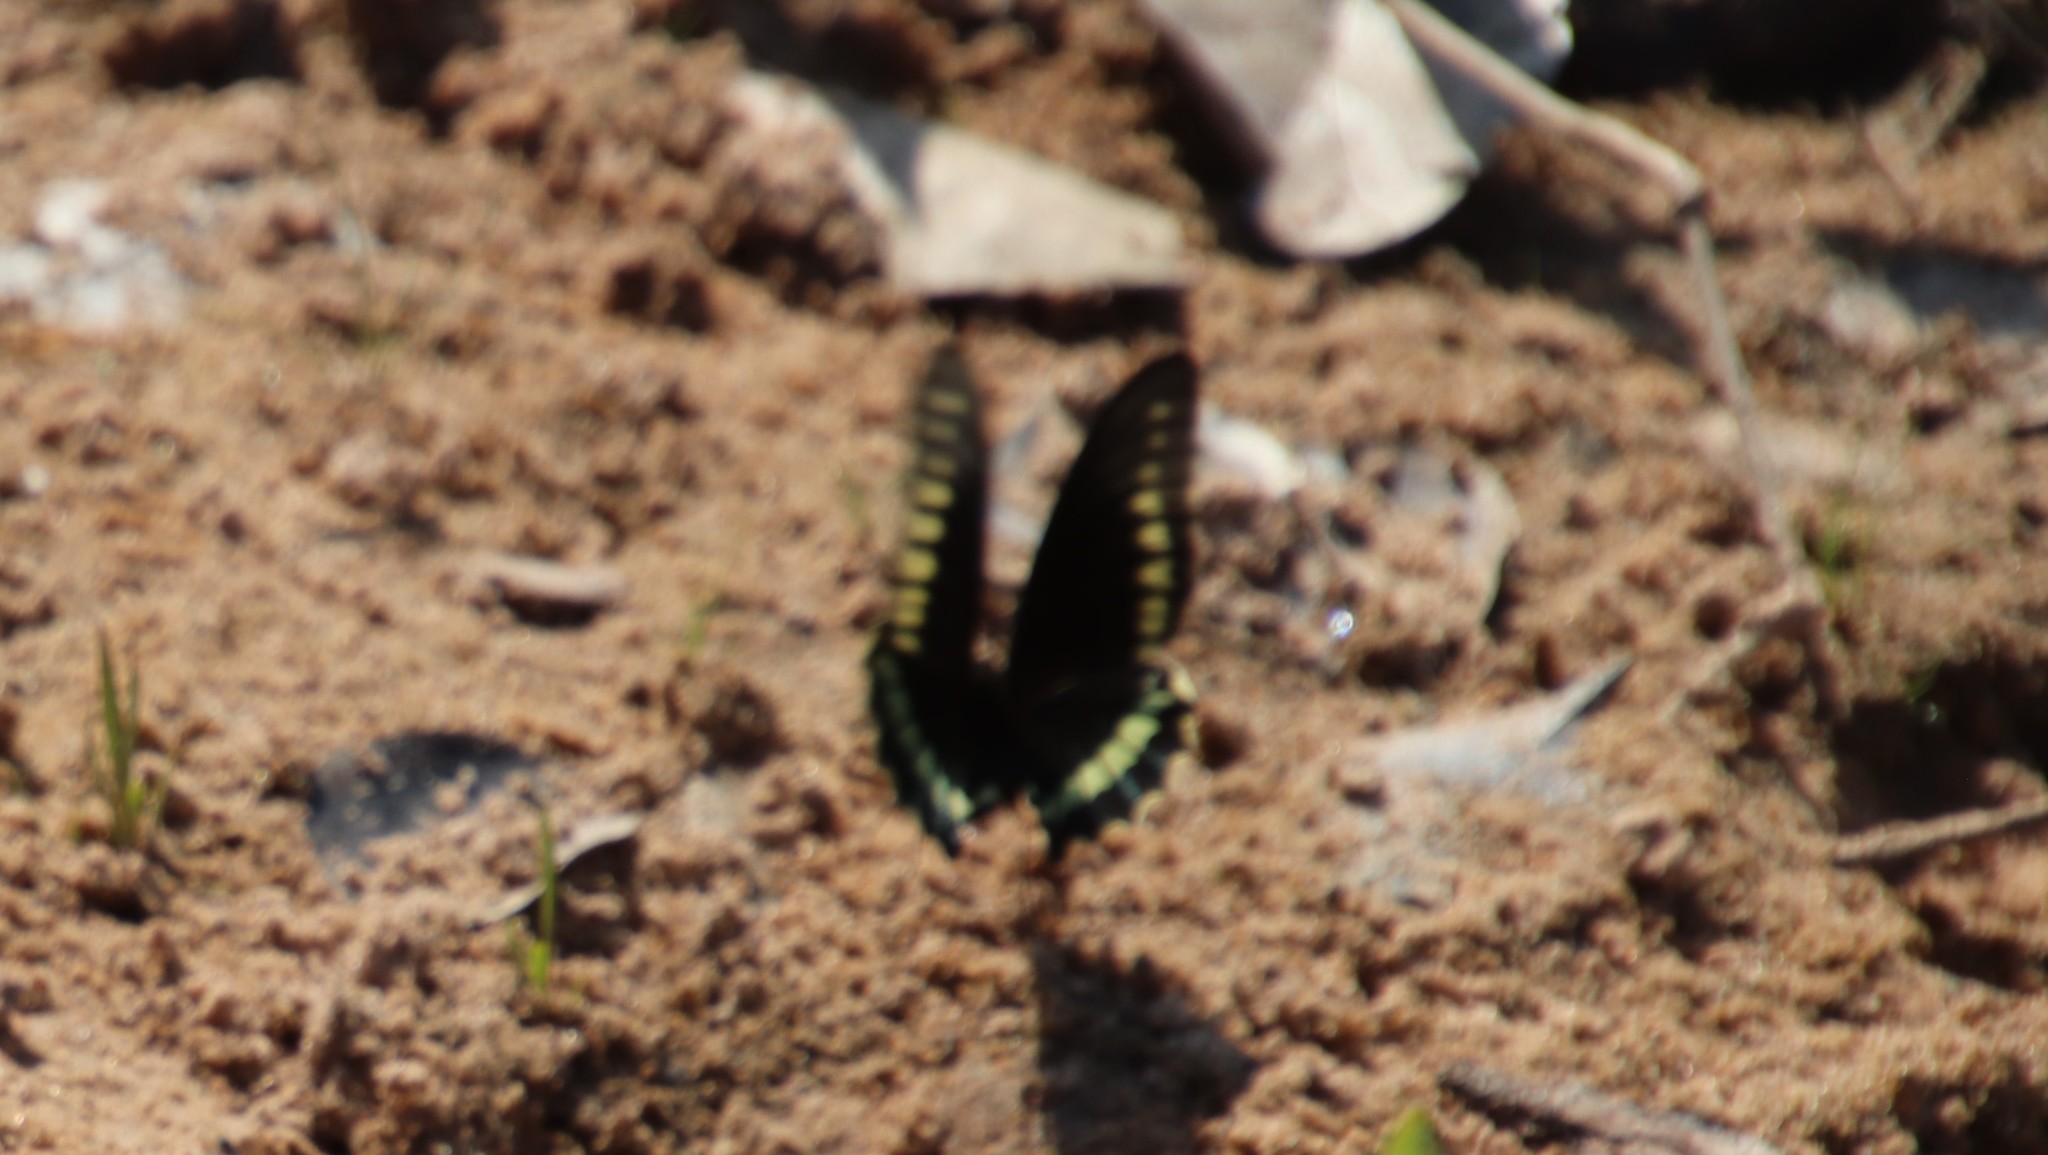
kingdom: Animalia
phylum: Arthropoda
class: Insecta
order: Lepidoptera
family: Papilionidae
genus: Battus
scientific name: Battus polydamas
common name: Polydamas swallowtail
